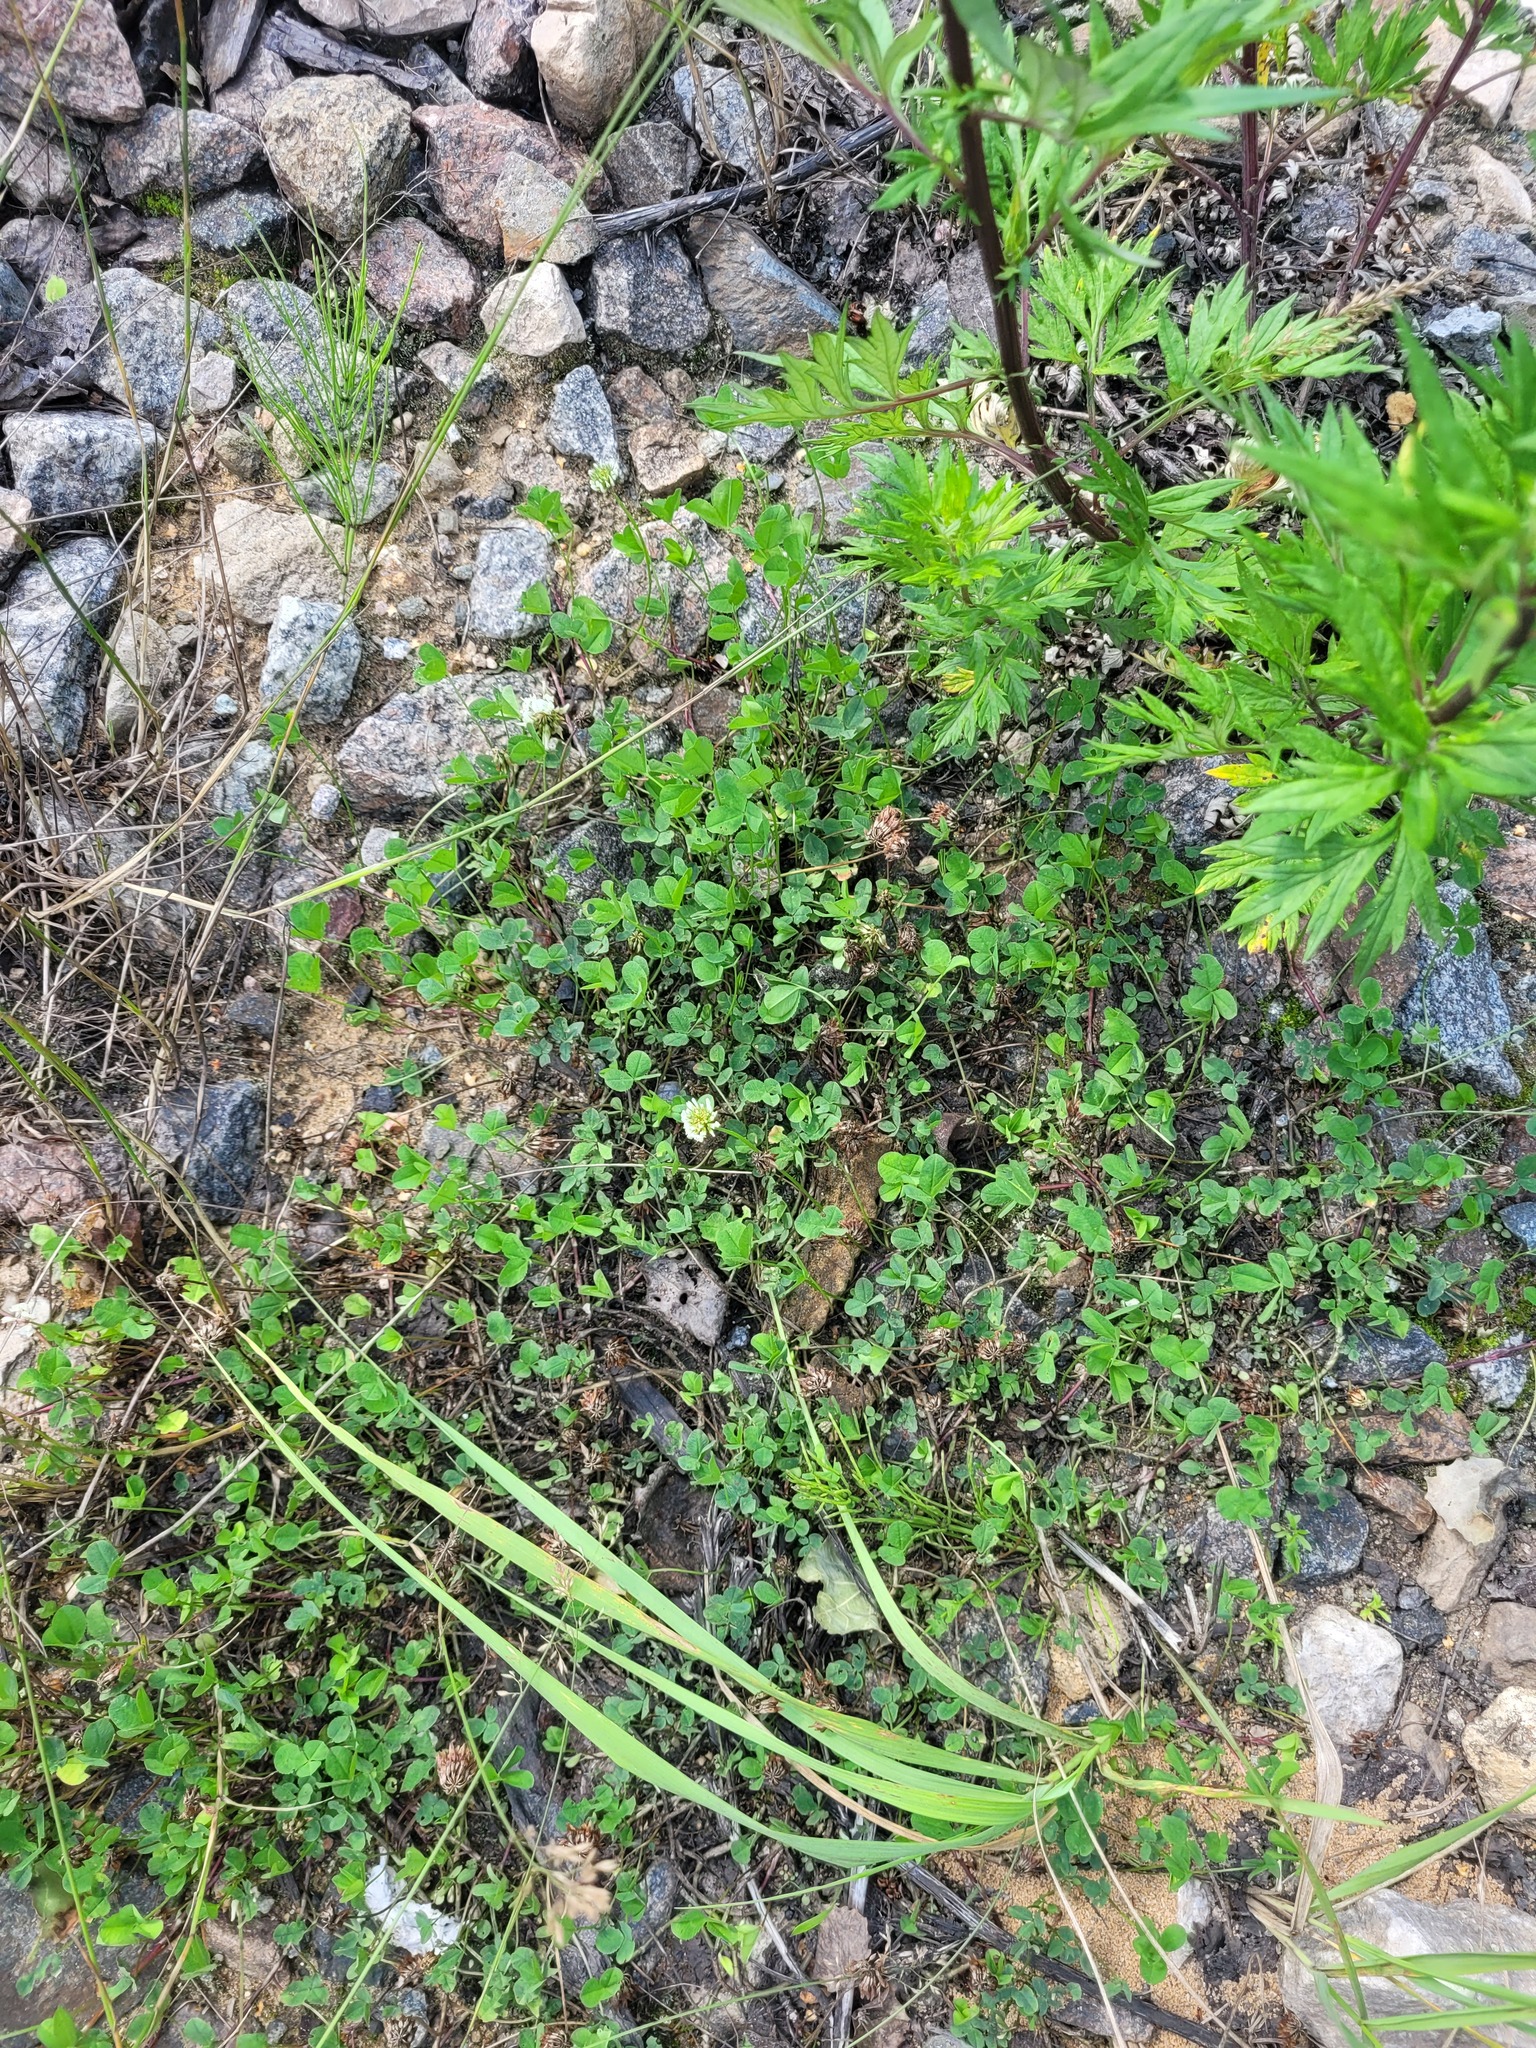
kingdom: Plantae
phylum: Tracheophyta
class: Magnoliopsida
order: Fabales
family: Fabaceae
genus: Trifolium
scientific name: Trifolium repens
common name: White clover
